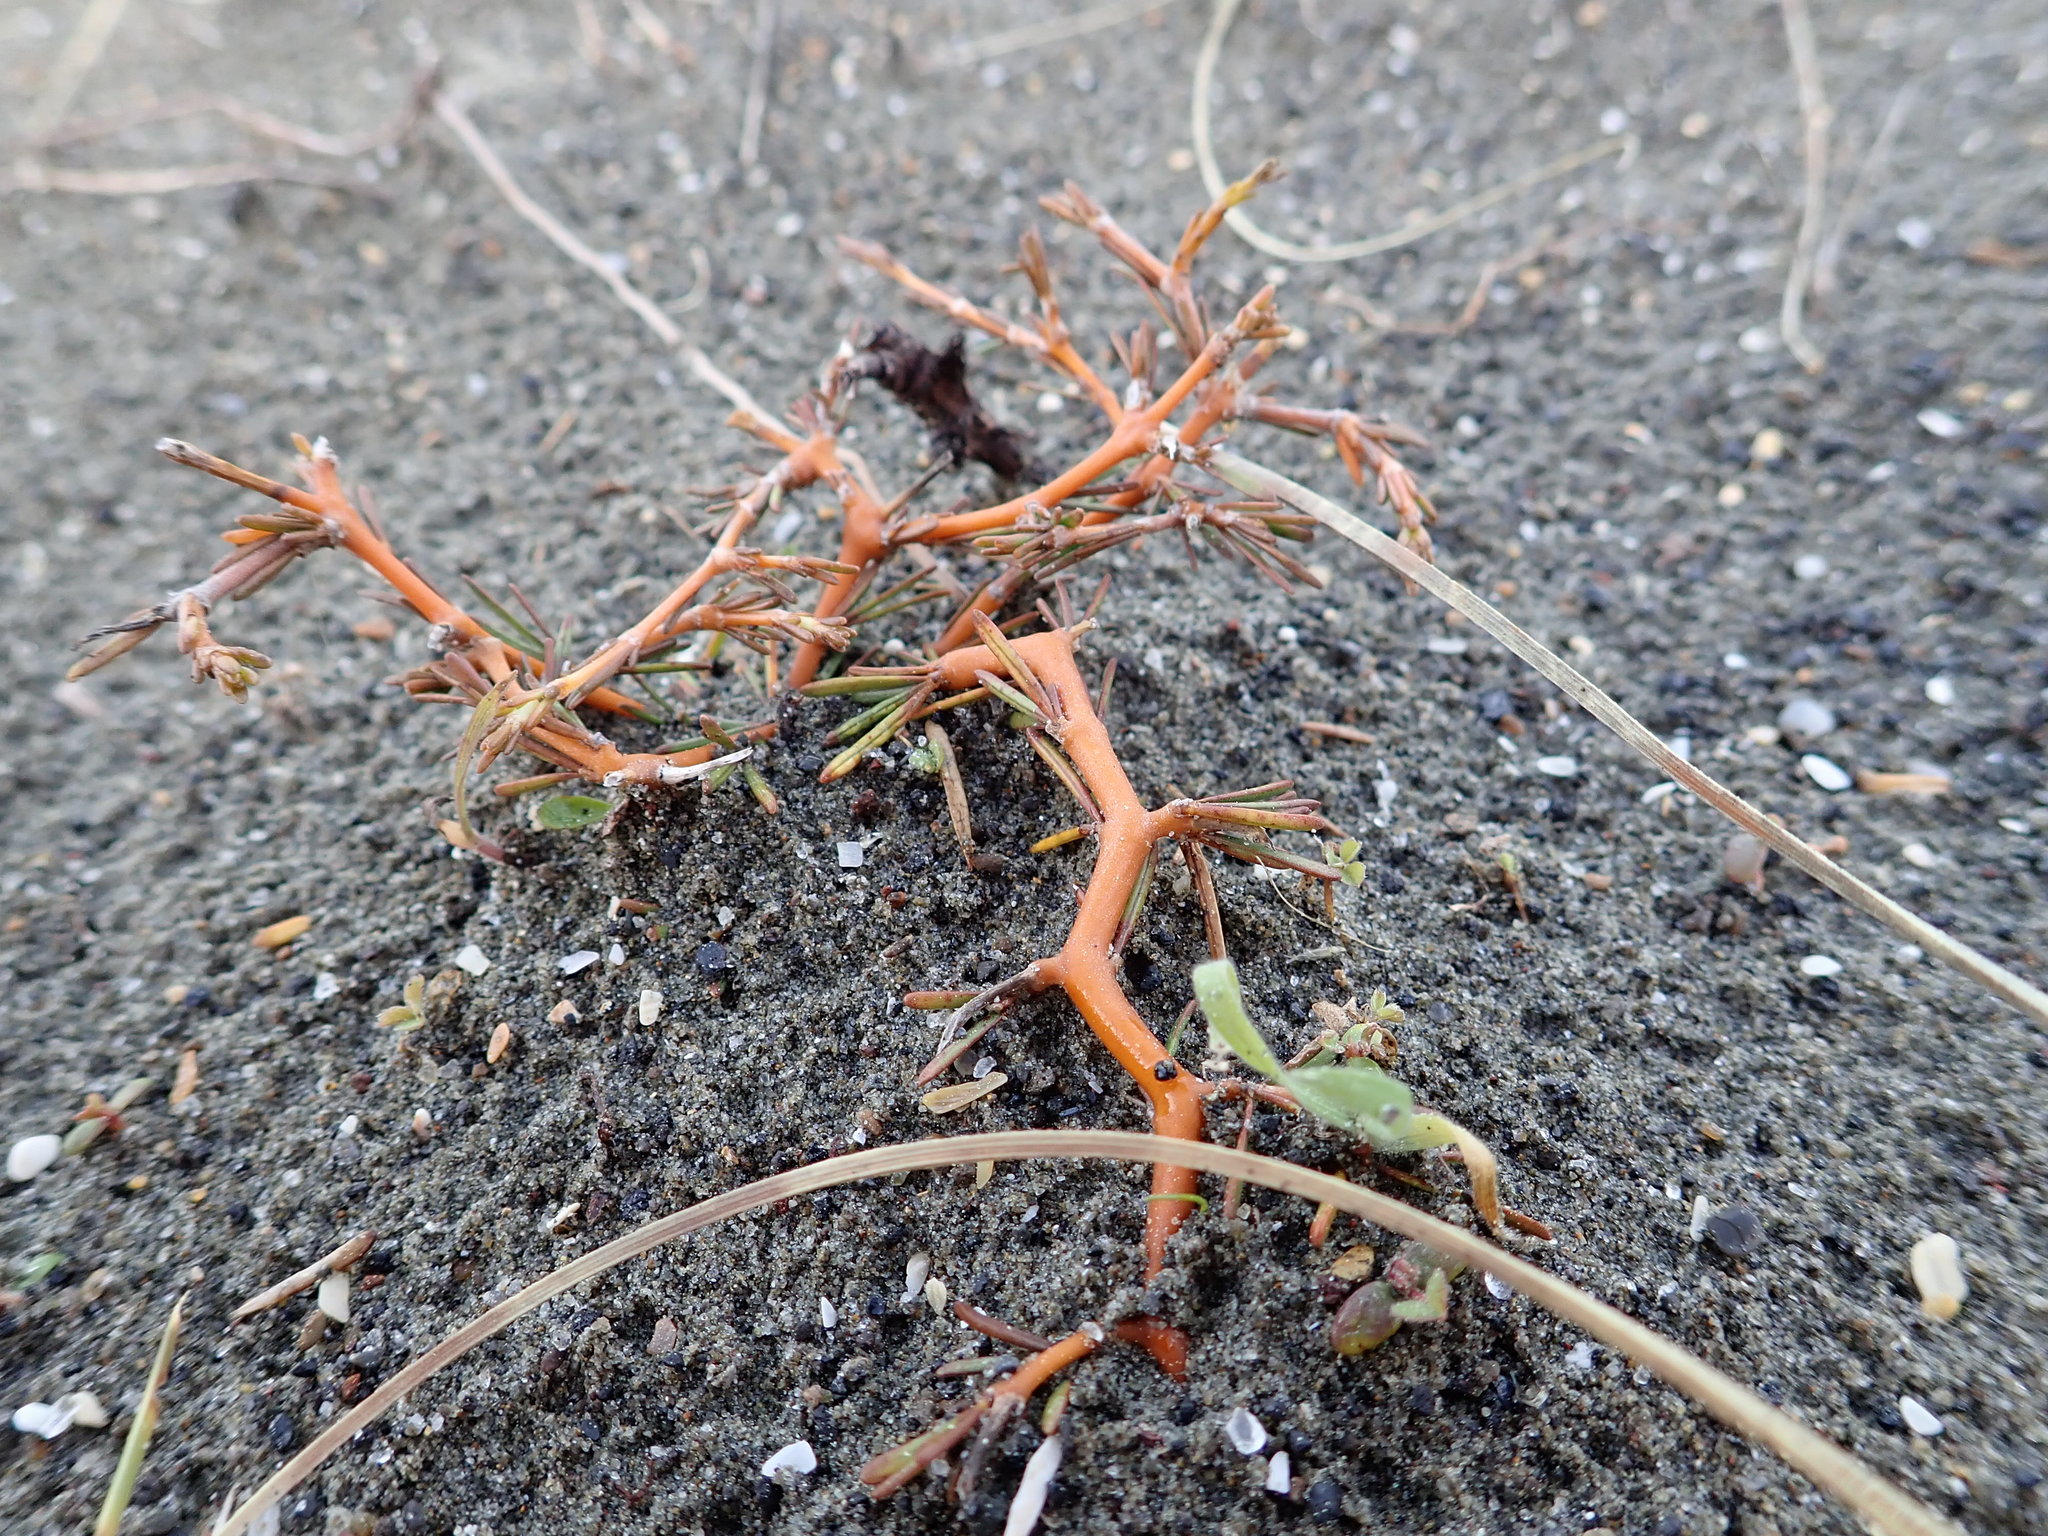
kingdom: Plantae
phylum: Tracheophyta
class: Magnoliopsida
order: Gentianales
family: Rubiaceae
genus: Coprosma
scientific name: Coprosma acerosa
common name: Sand coprosma
